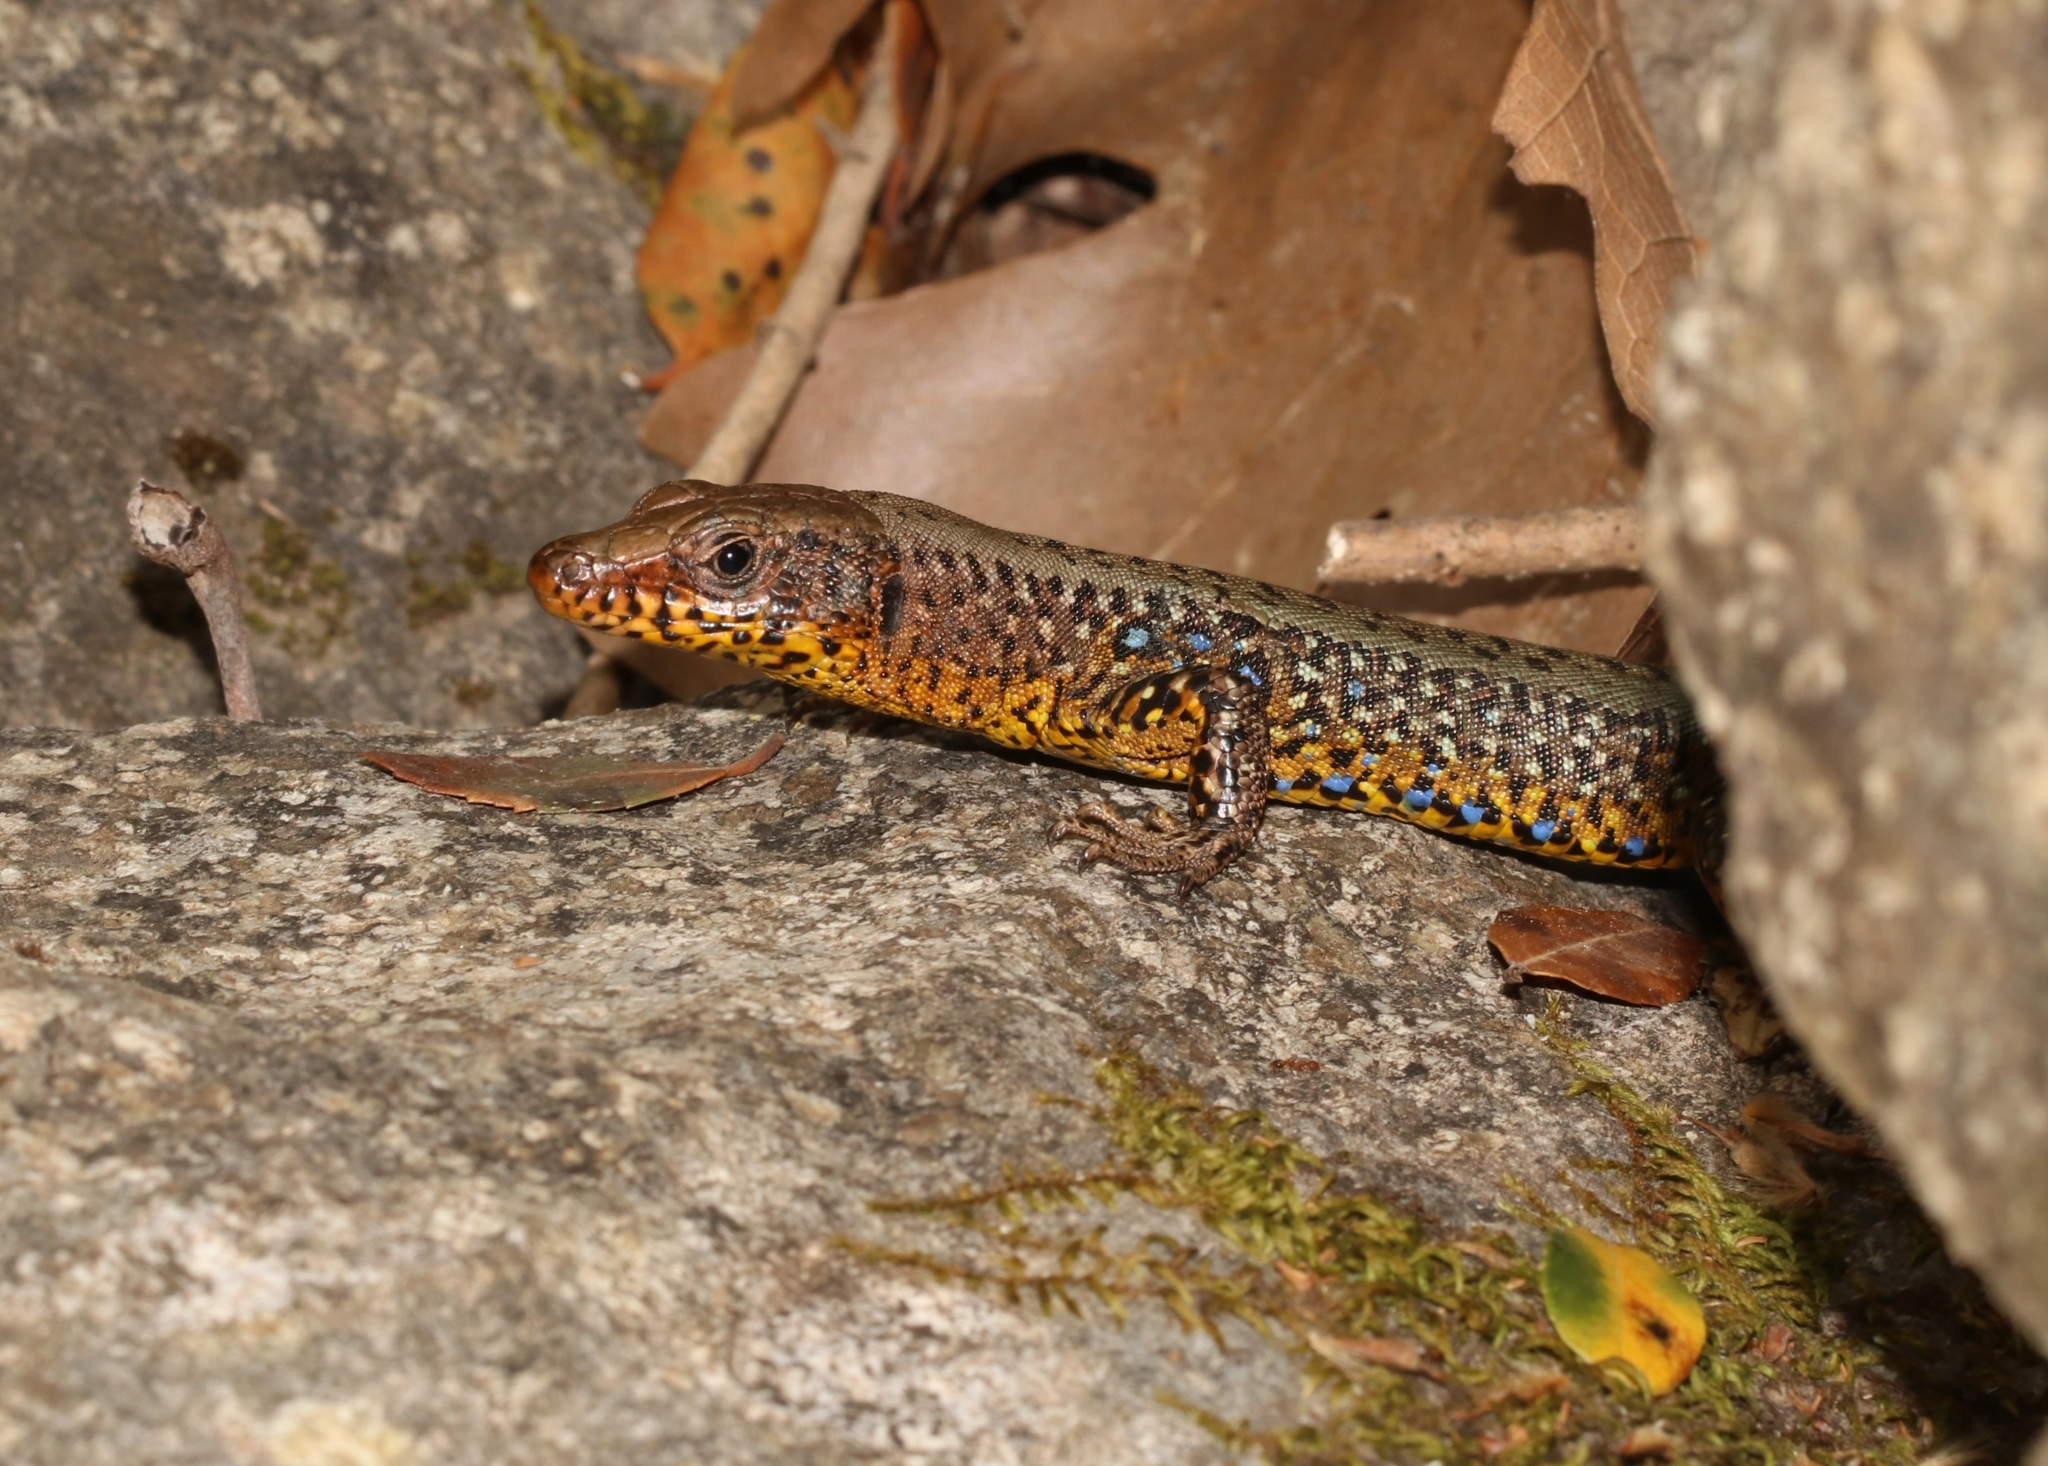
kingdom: Animalia
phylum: Chordata
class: Squamata
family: Lacertidae
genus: Hellenolacerta
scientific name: Hellenolacerta graeca
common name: Greek rock lizard
